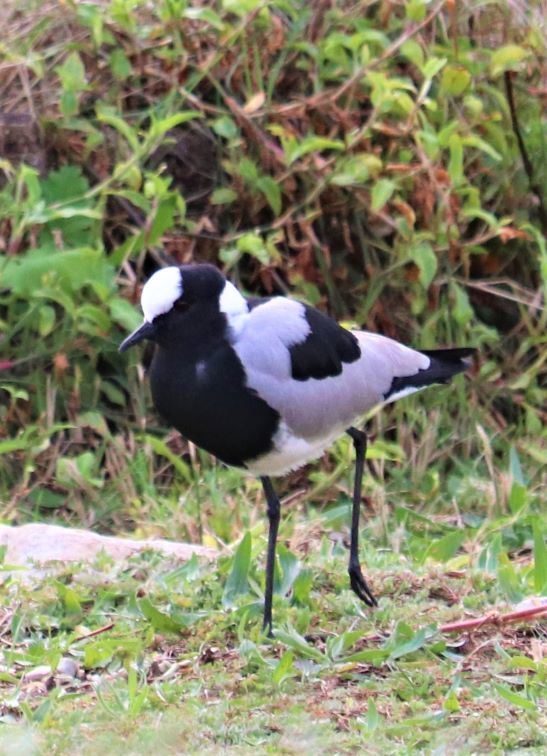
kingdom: Animalia
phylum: Chordata
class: Aves
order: Charadriiformes
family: Charadriidae
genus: Vanellus
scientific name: Vanellus armatus
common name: Blacksmith lapwing
